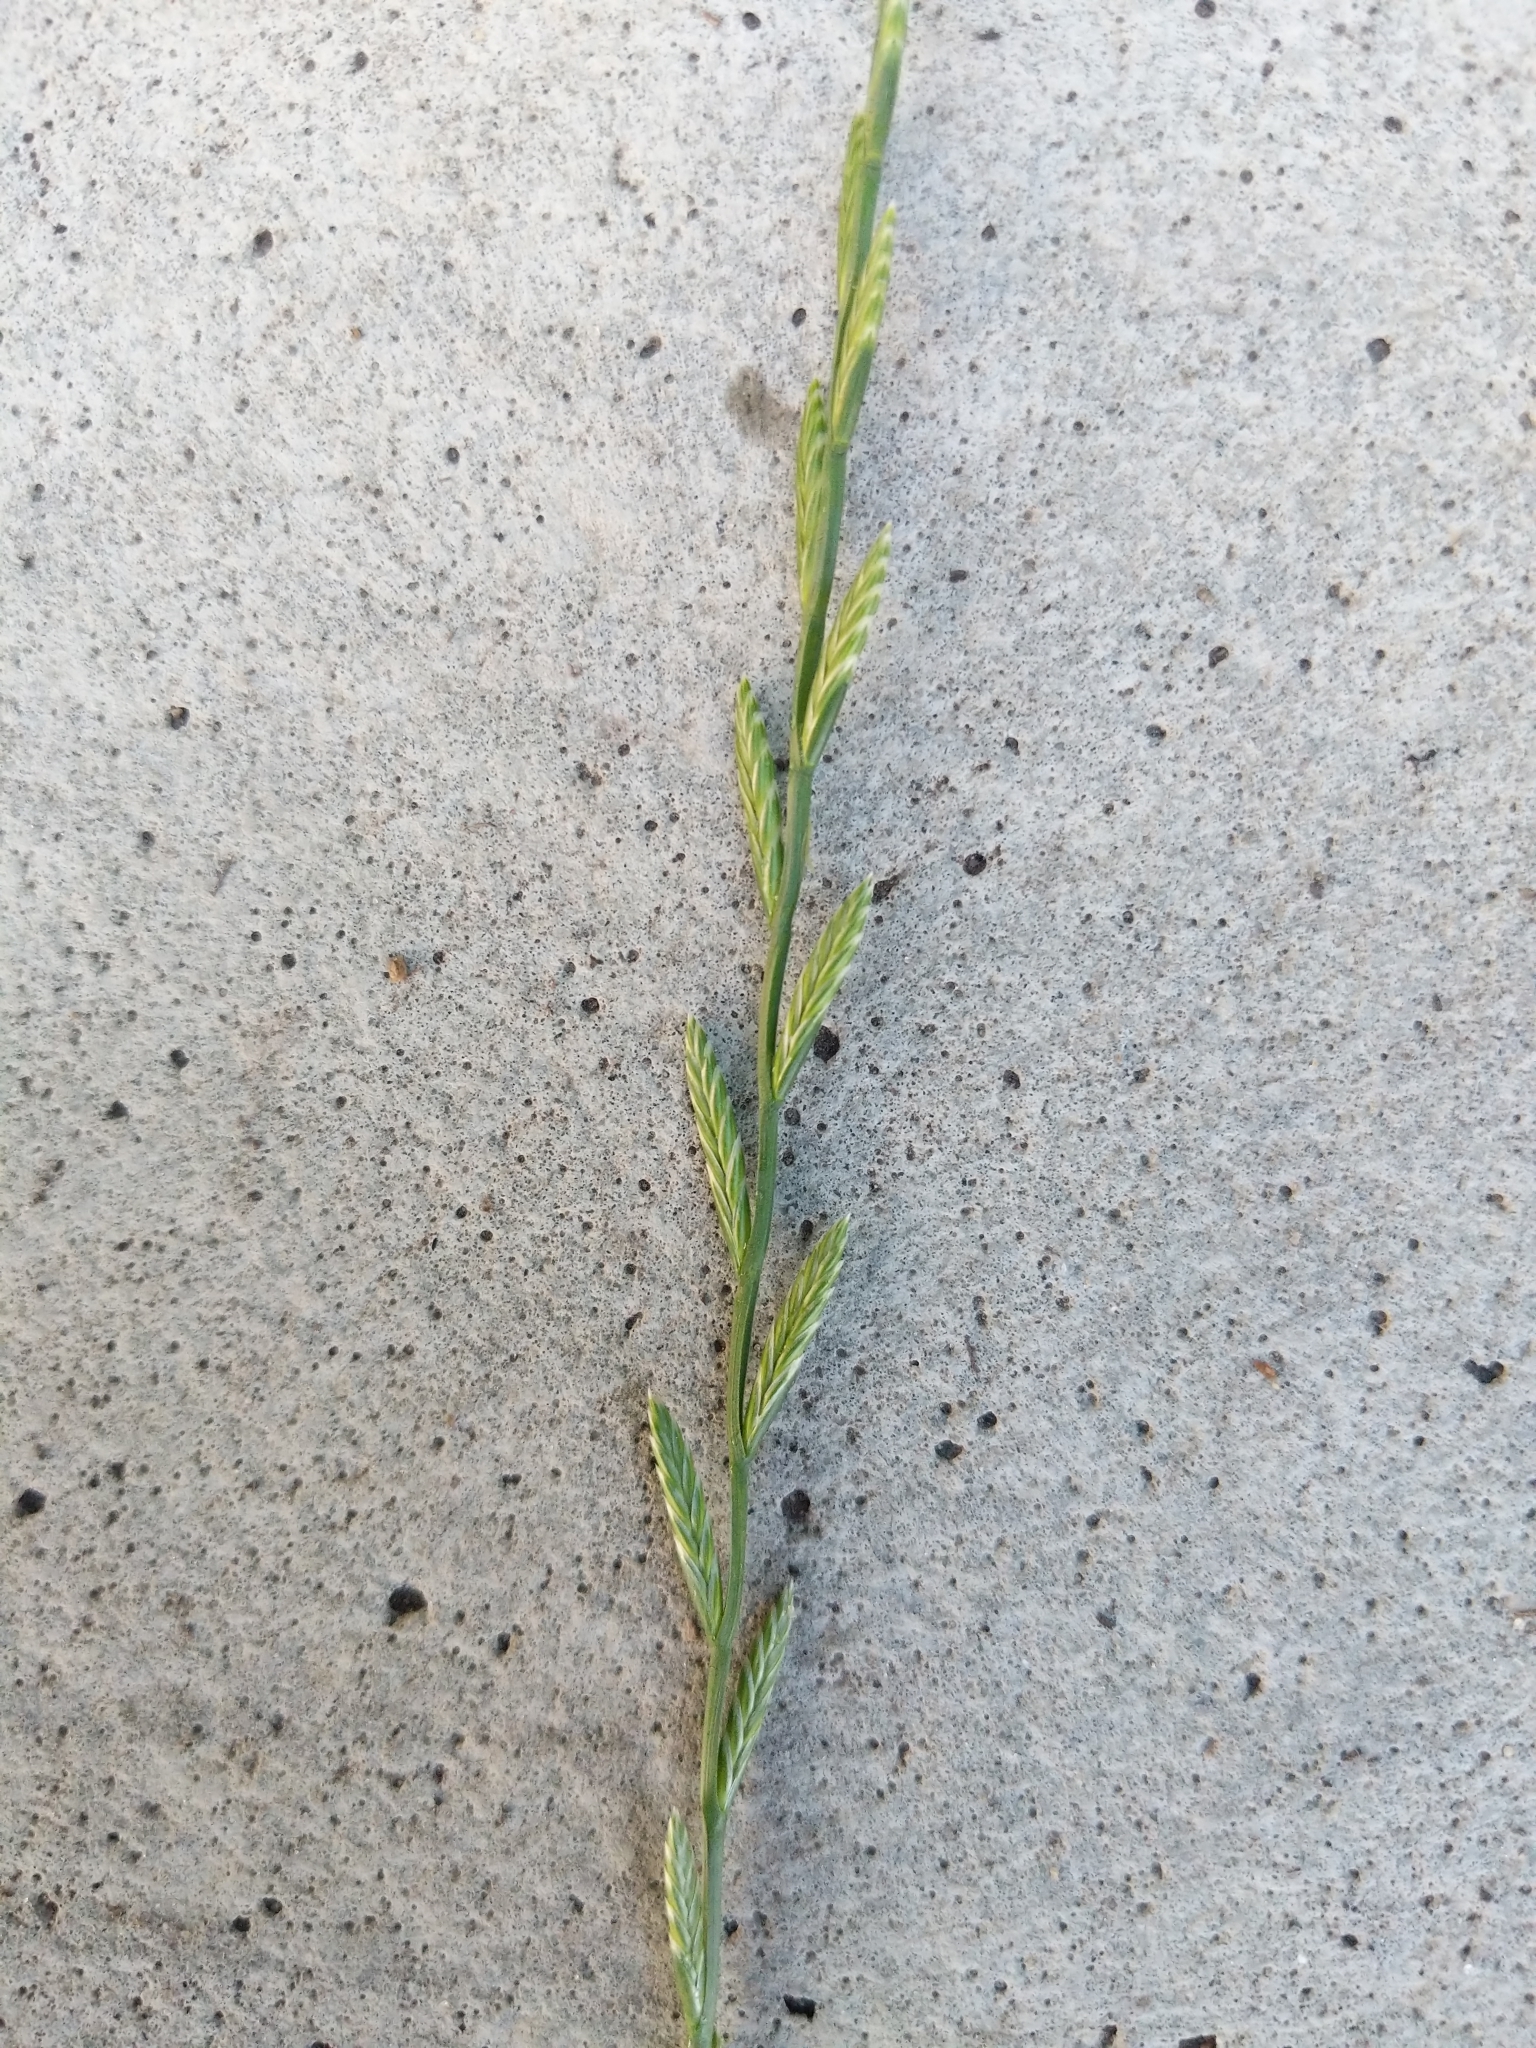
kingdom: Plantae
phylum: Tracheophyta
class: Liliopsida
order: Poales
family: Poaceae
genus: Lolium
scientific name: Lolium perenne
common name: Perennial ryegrass
